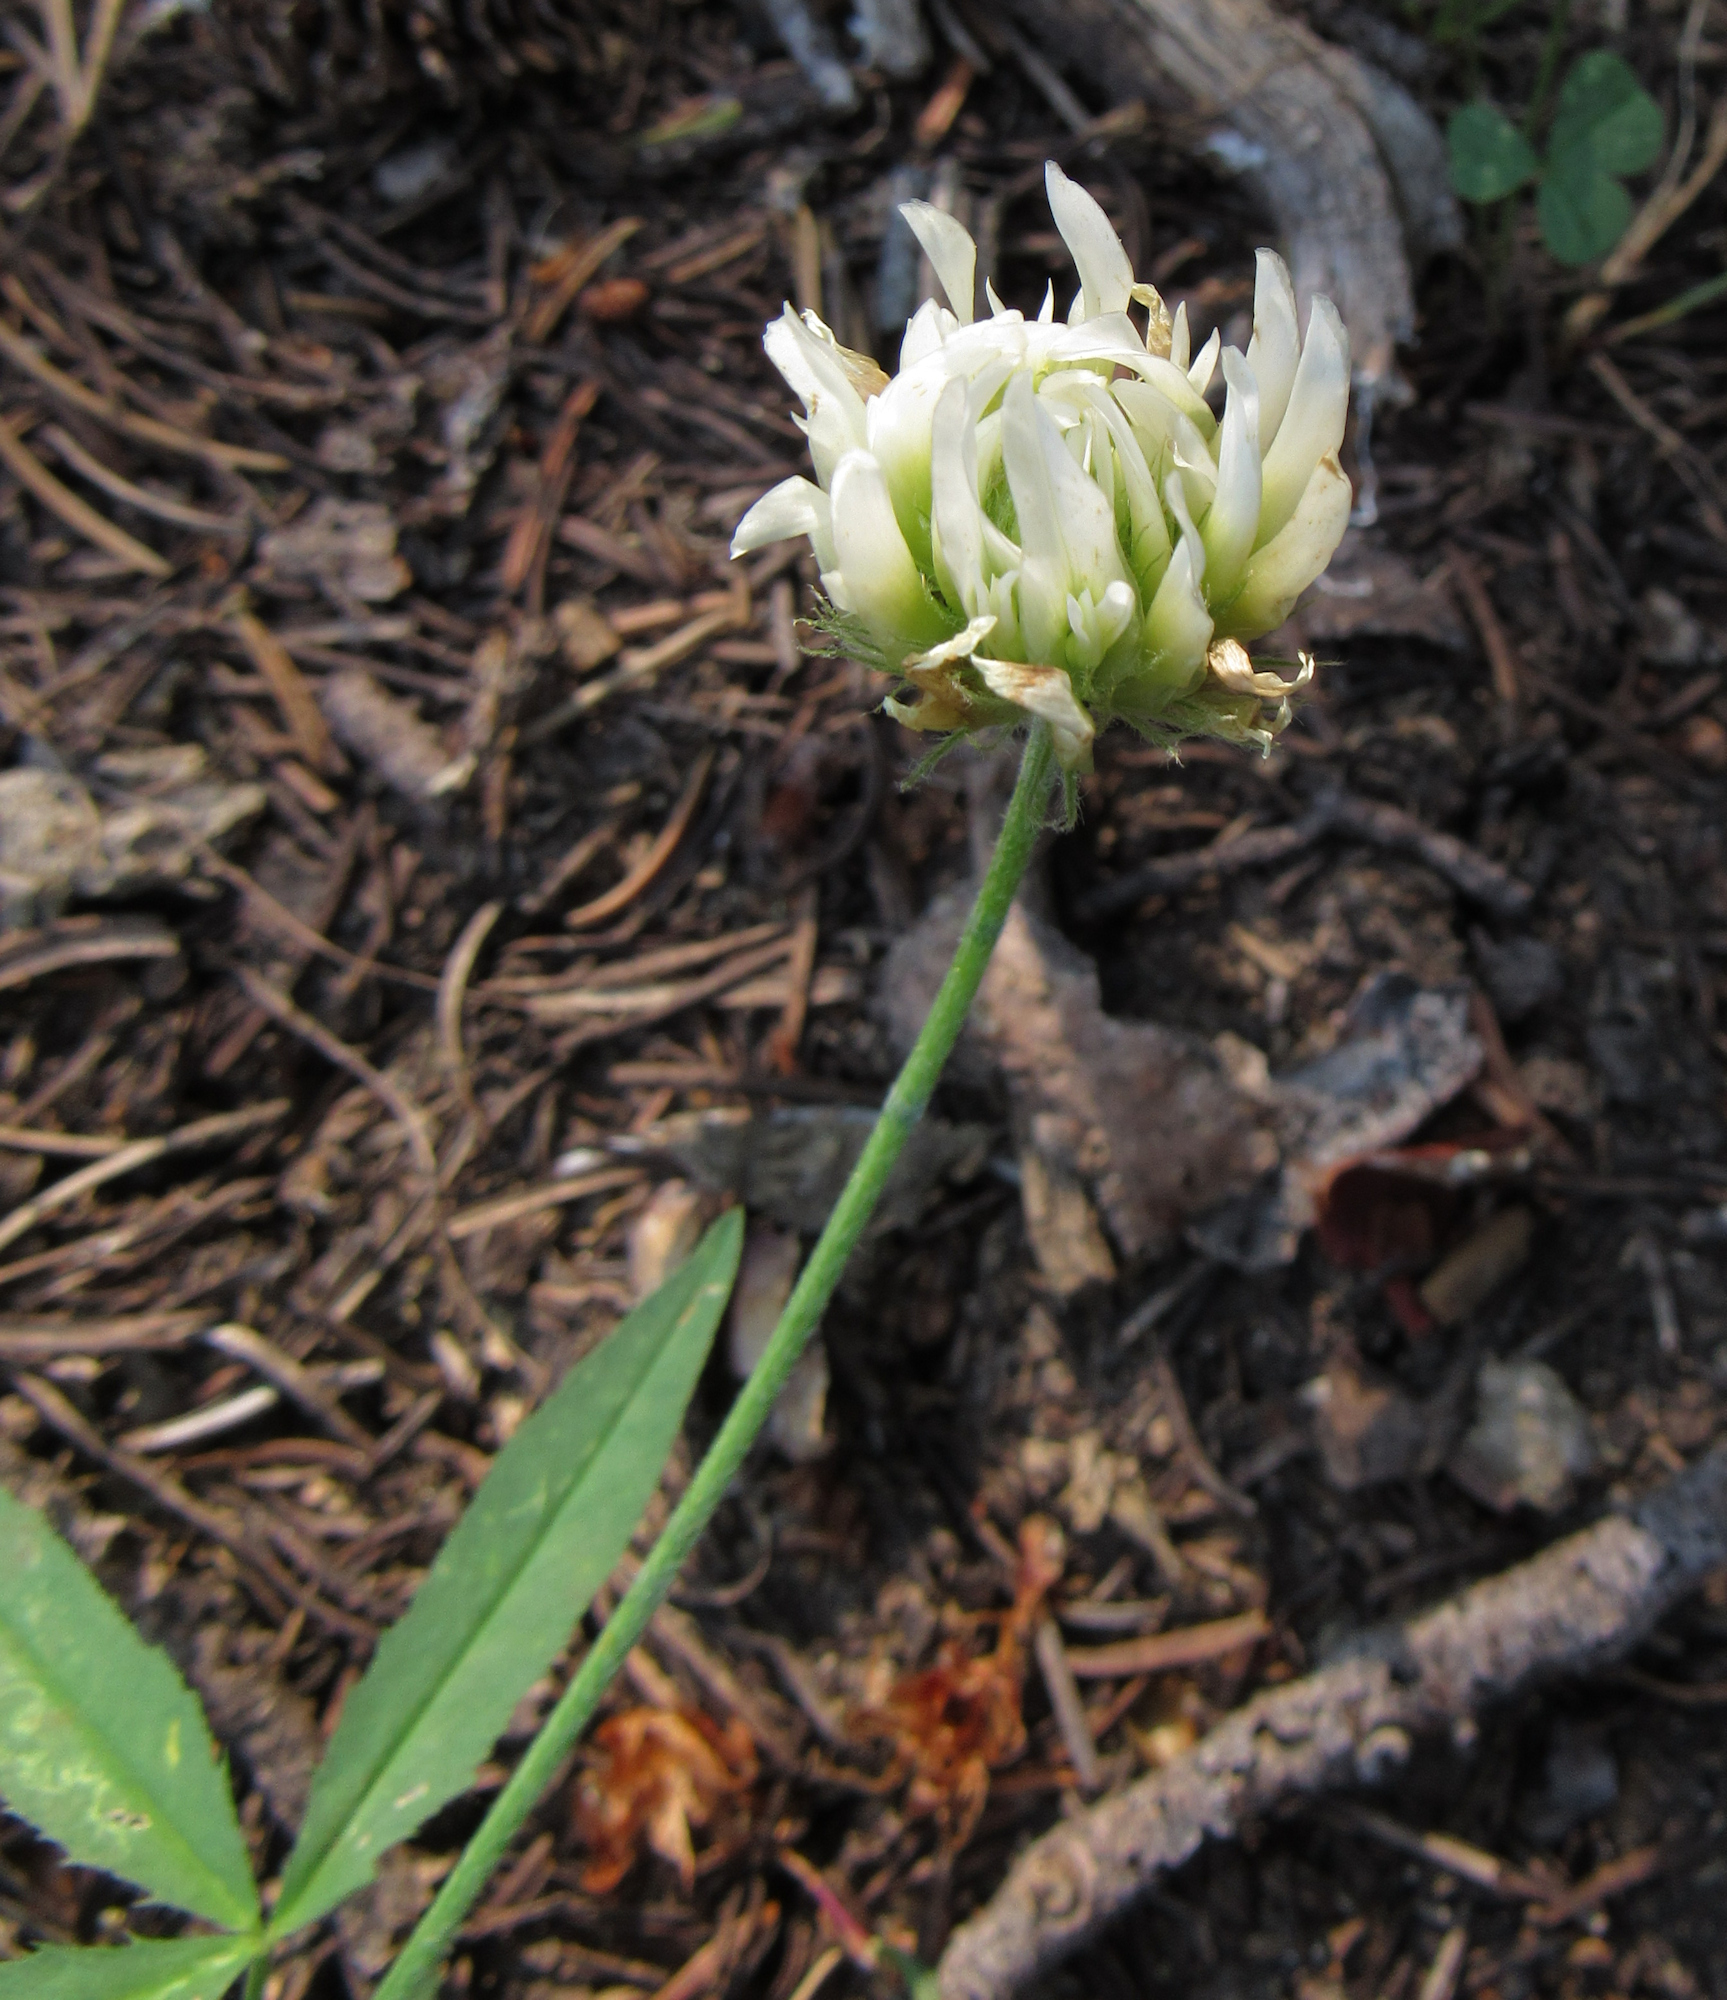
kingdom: Plantae
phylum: Tracheophyta
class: Magnoliopsida
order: Fabales
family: Fabaceae
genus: Trifolium
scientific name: Trifolium longipes
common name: Long-stalk clover
